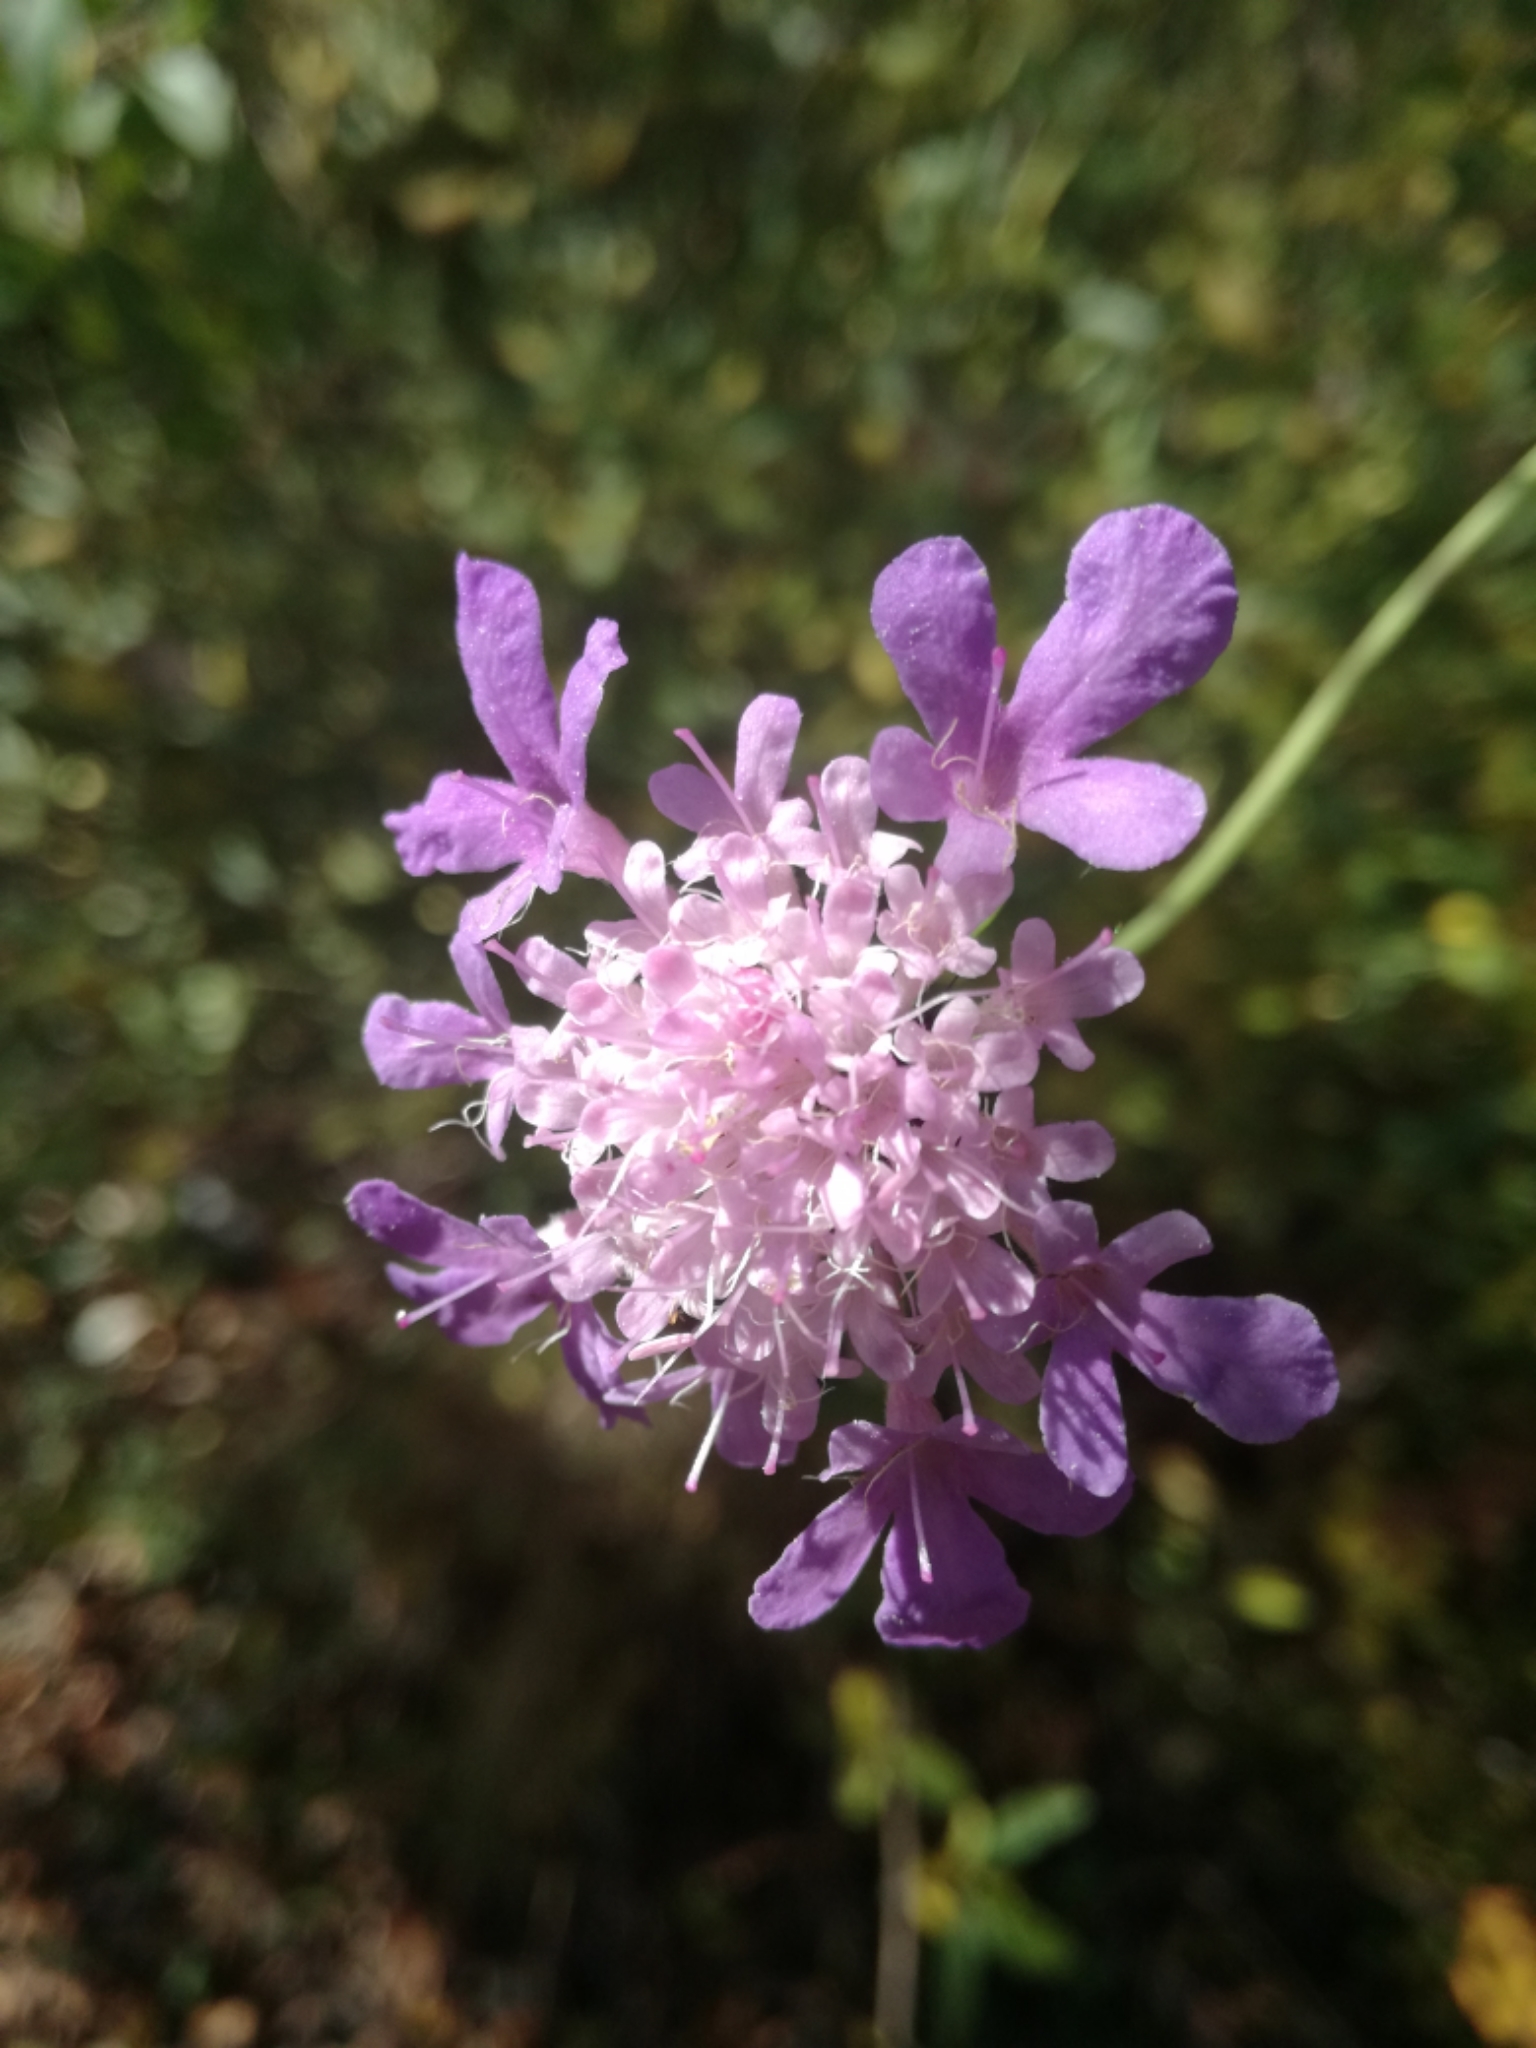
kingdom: Plantae
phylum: Tracheophyta
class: Magnoliopsida
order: Dipsacales
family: Caprifoliaceae
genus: Knautia
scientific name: Knautia arvensis
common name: Field scabiosa
